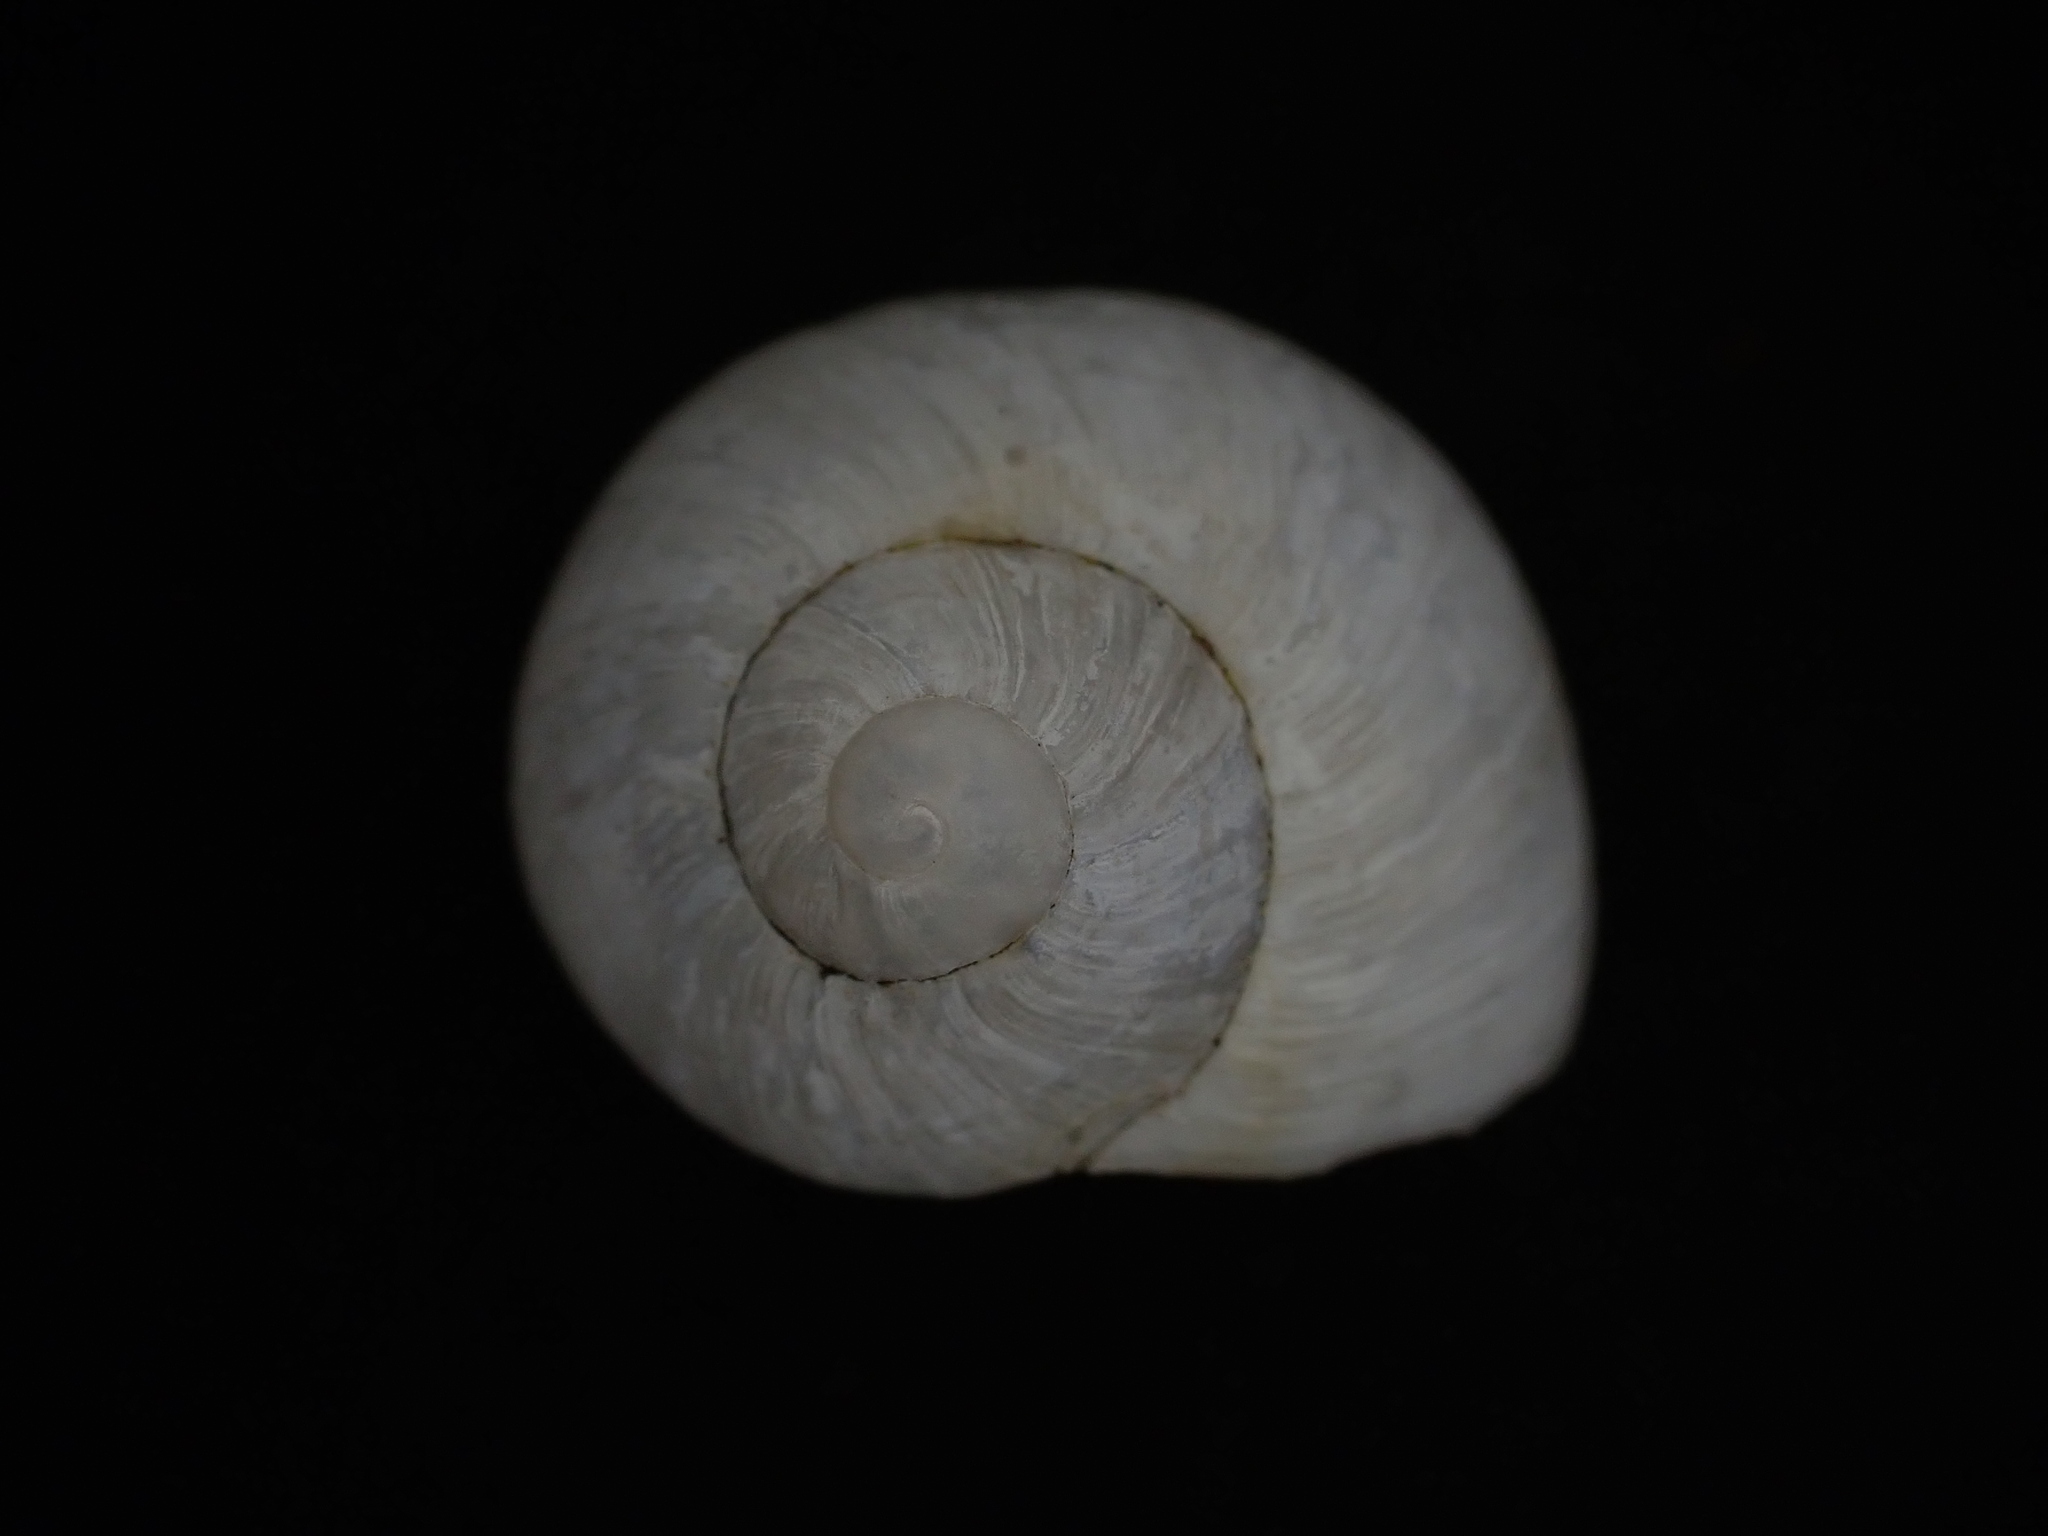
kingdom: Animalia
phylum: Mollusca
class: Gastropoda
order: Stylommatophora
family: Helicidae
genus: Cornu
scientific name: Cornu aspersum
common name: Brown garden snail
